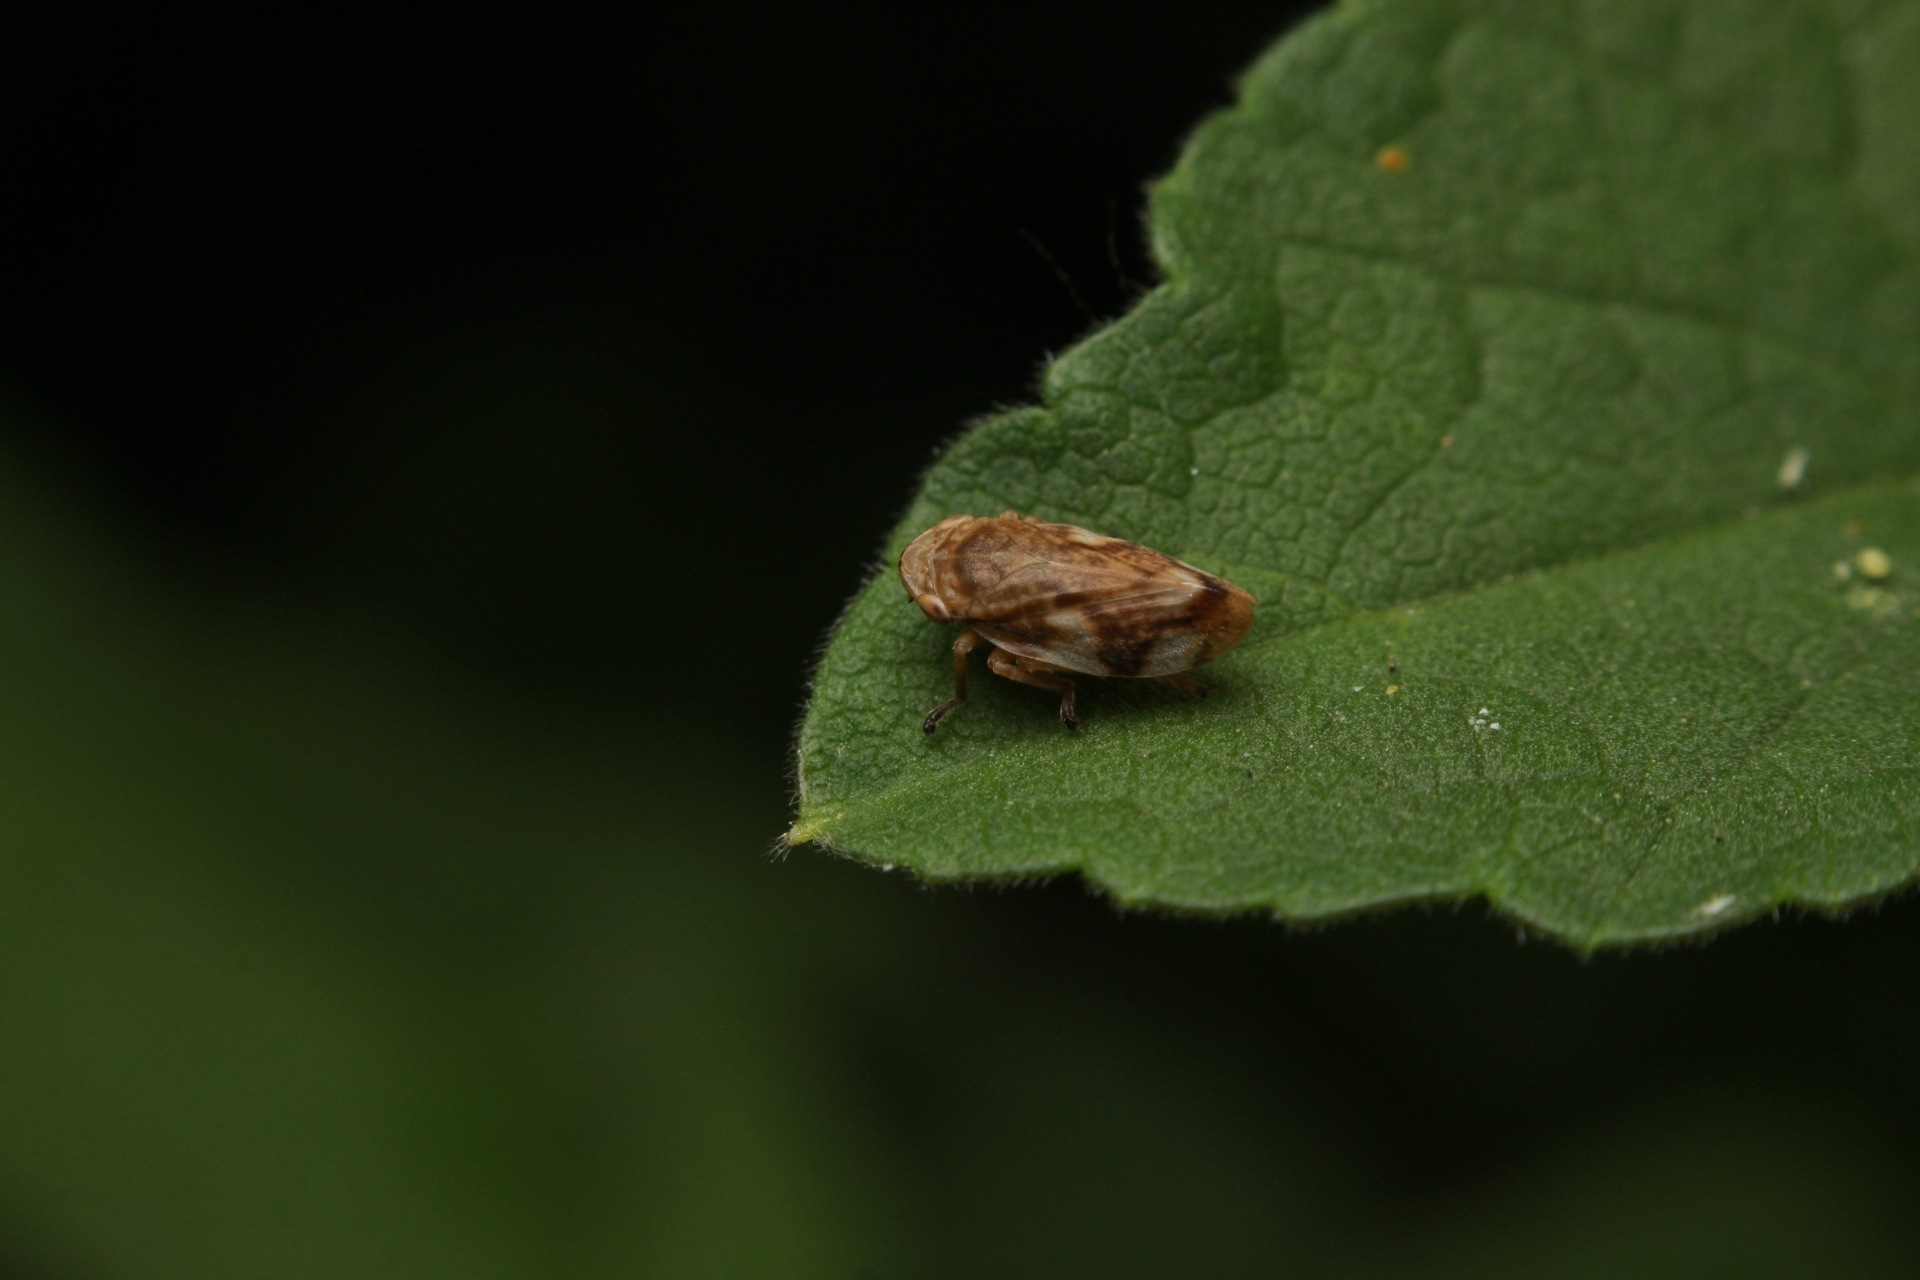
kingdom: Animalia
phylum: Arthropoda
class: Insecta
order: Hemiptera
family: Aphrophoridae
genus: Philaenus
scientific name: Philaenus spumarius
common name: Meadow spittlebug
